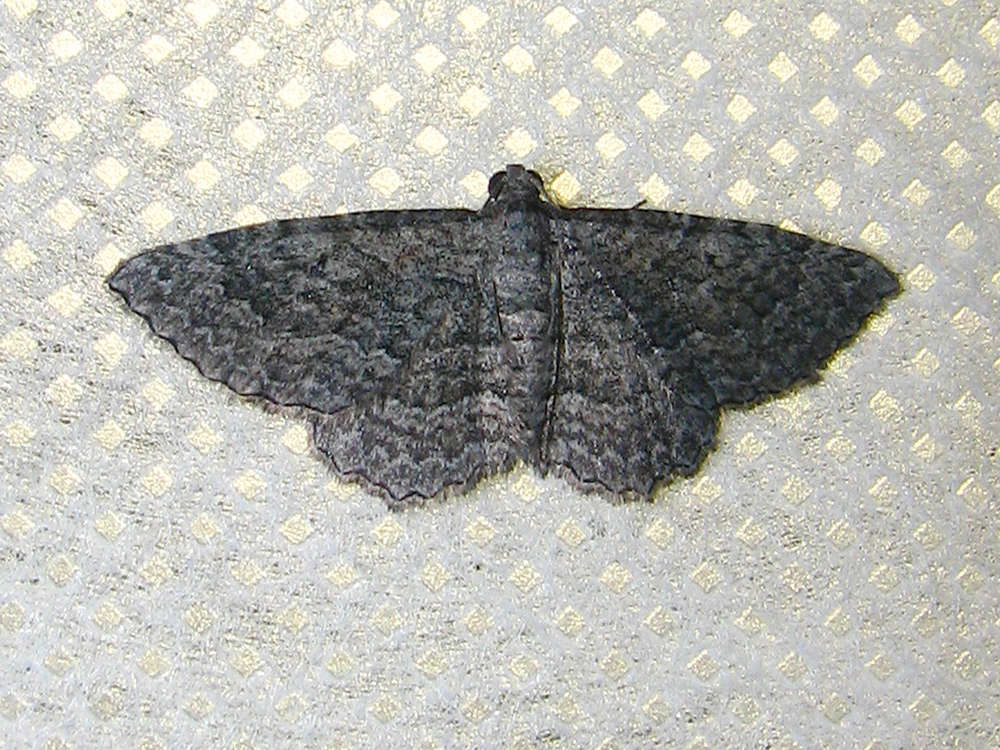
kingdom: Animalia
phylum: Arthropoda
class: Insecta
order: Lepidoptera
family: Geometridae
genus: Chrysolarentia
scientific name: Chrysolarentia squamulata
